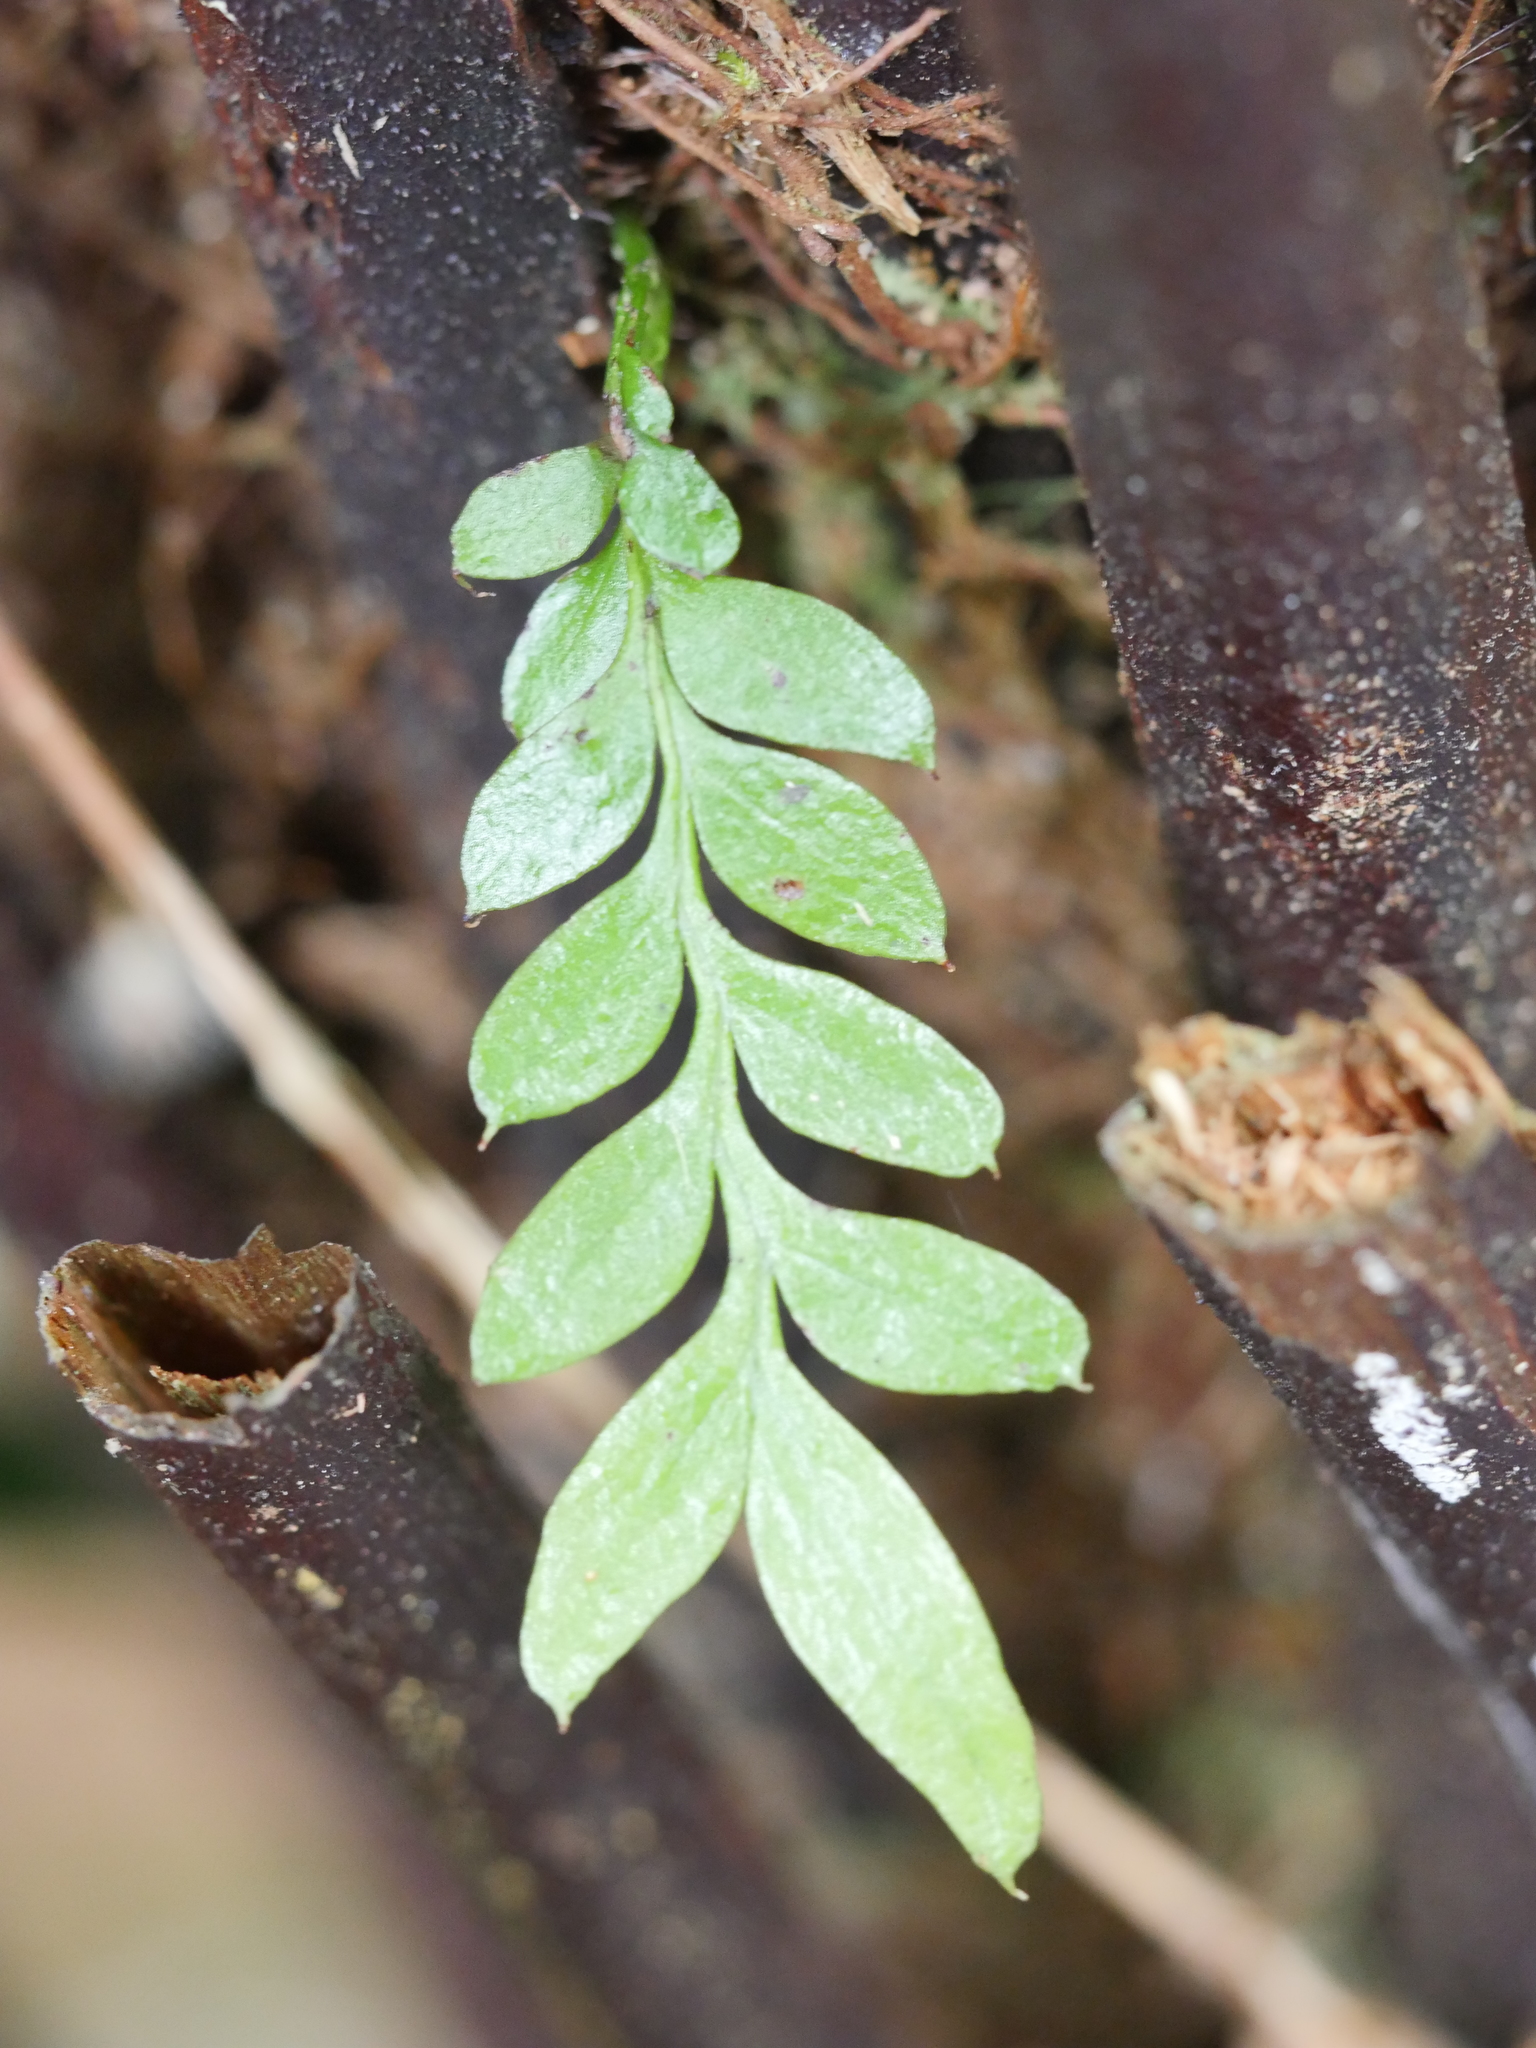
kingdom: Plantae
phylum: Tracheophyta
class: Polypodiopsida
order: Psilotales
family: Psilotaceae
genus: Tmesipteris
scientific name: Tmesipteris lanceolata
